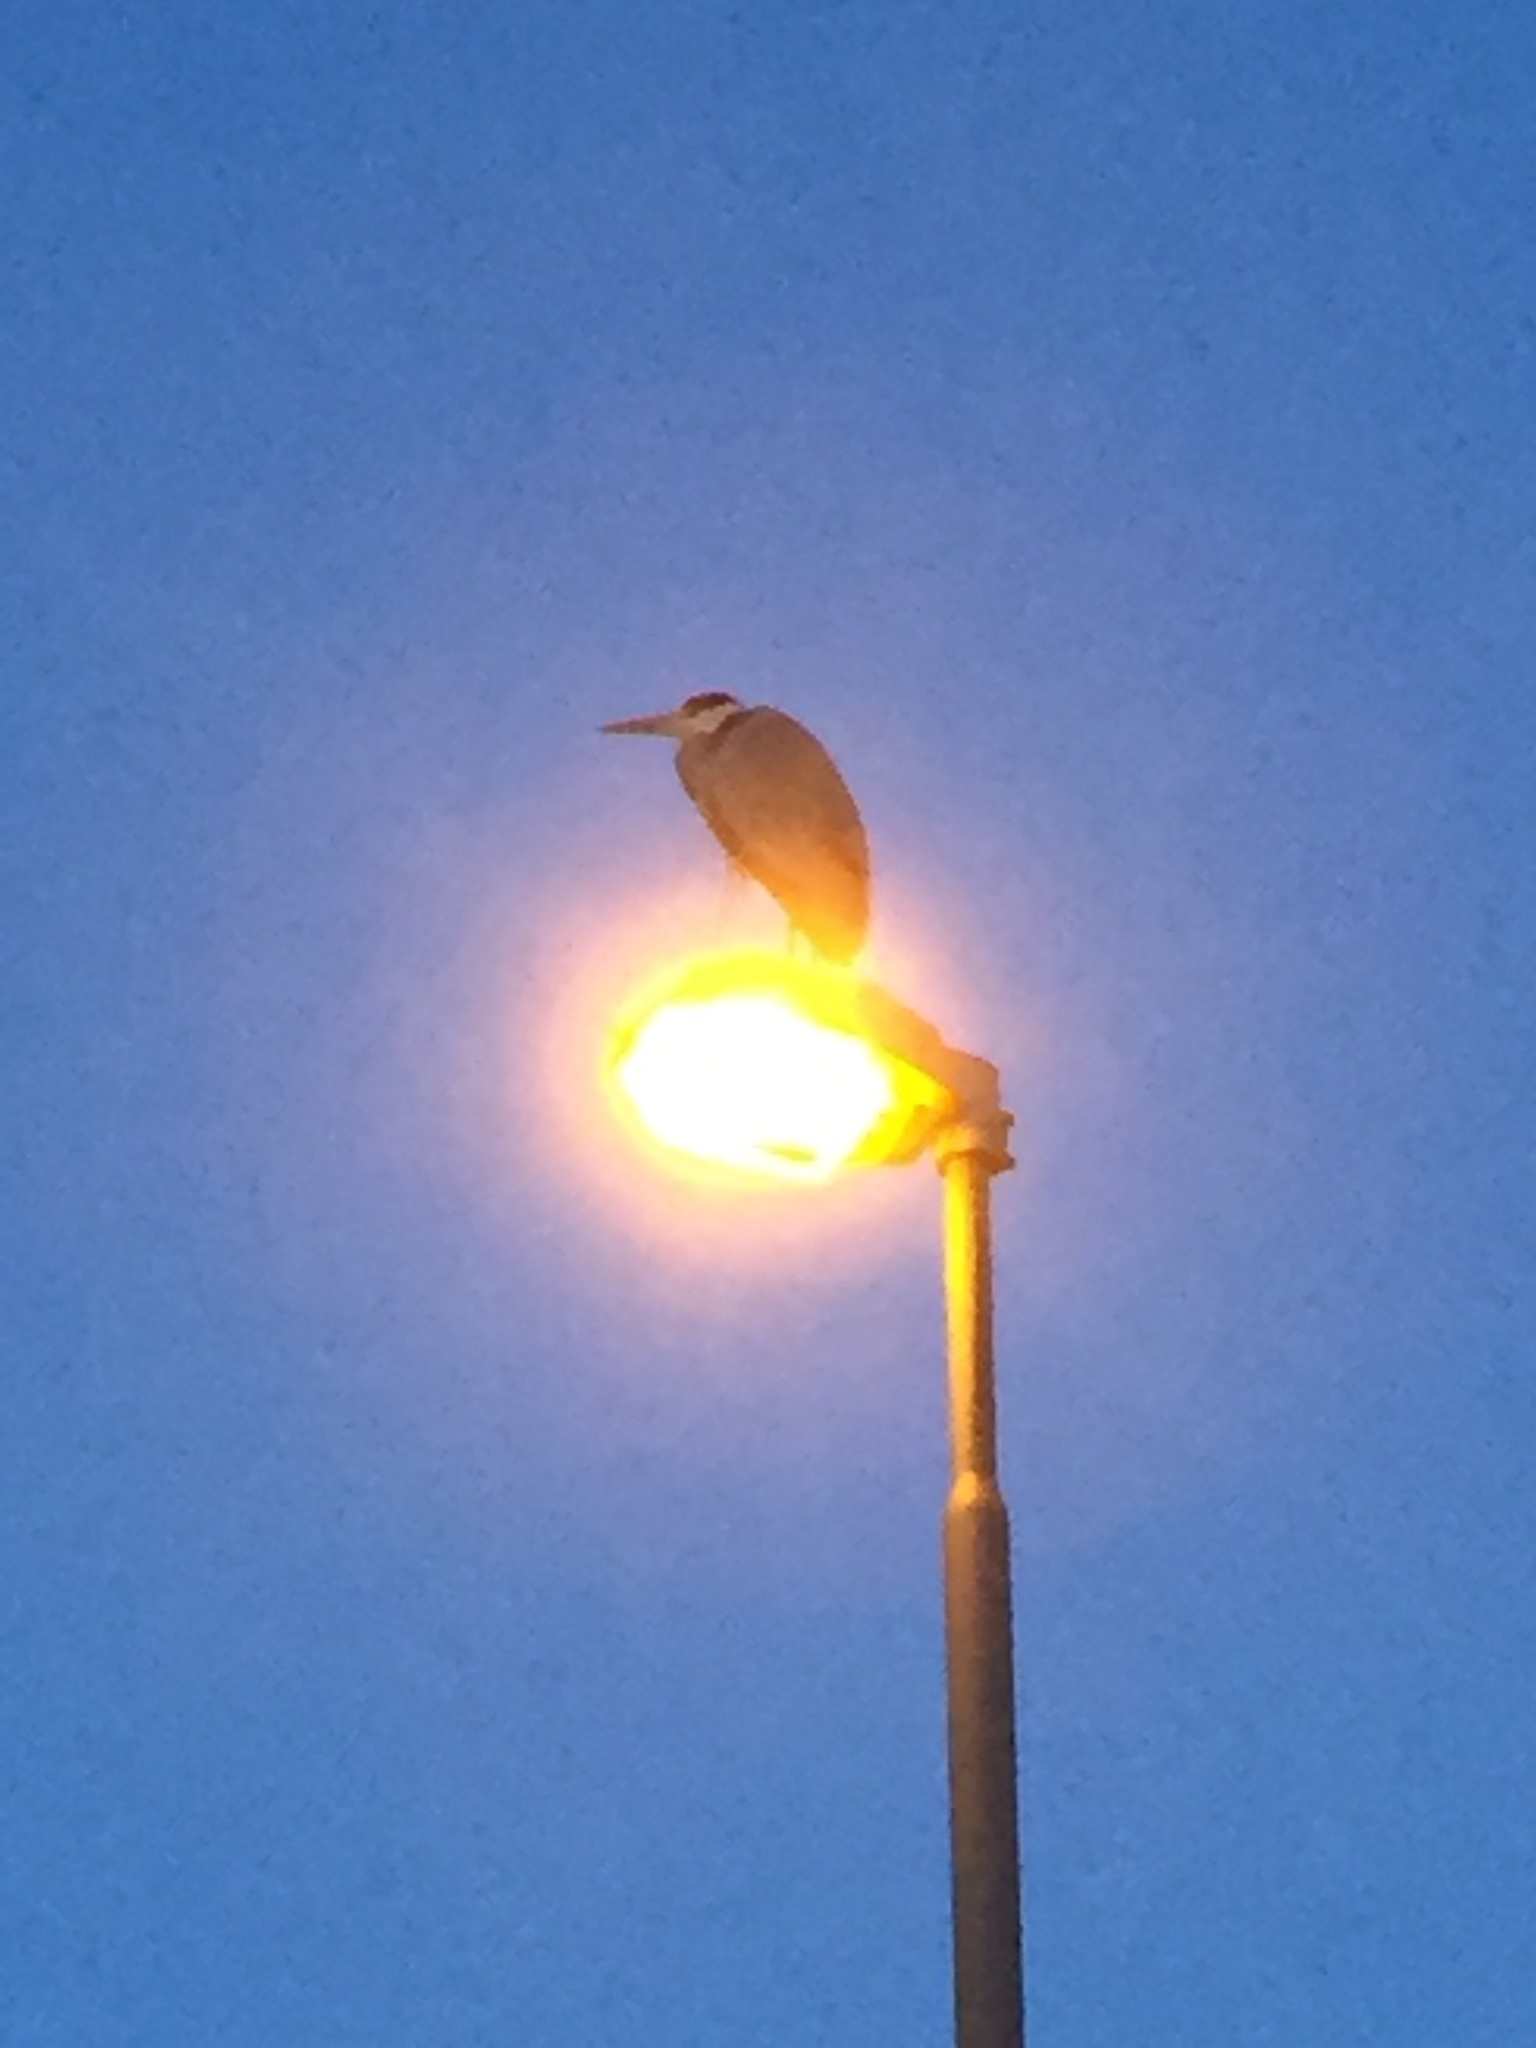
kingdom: Animalia
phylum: Chordata
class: Aves
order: Pelecaniformes
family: Ardeidae
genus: Ardea
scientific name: Ardea cinerea
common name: Grey heron
